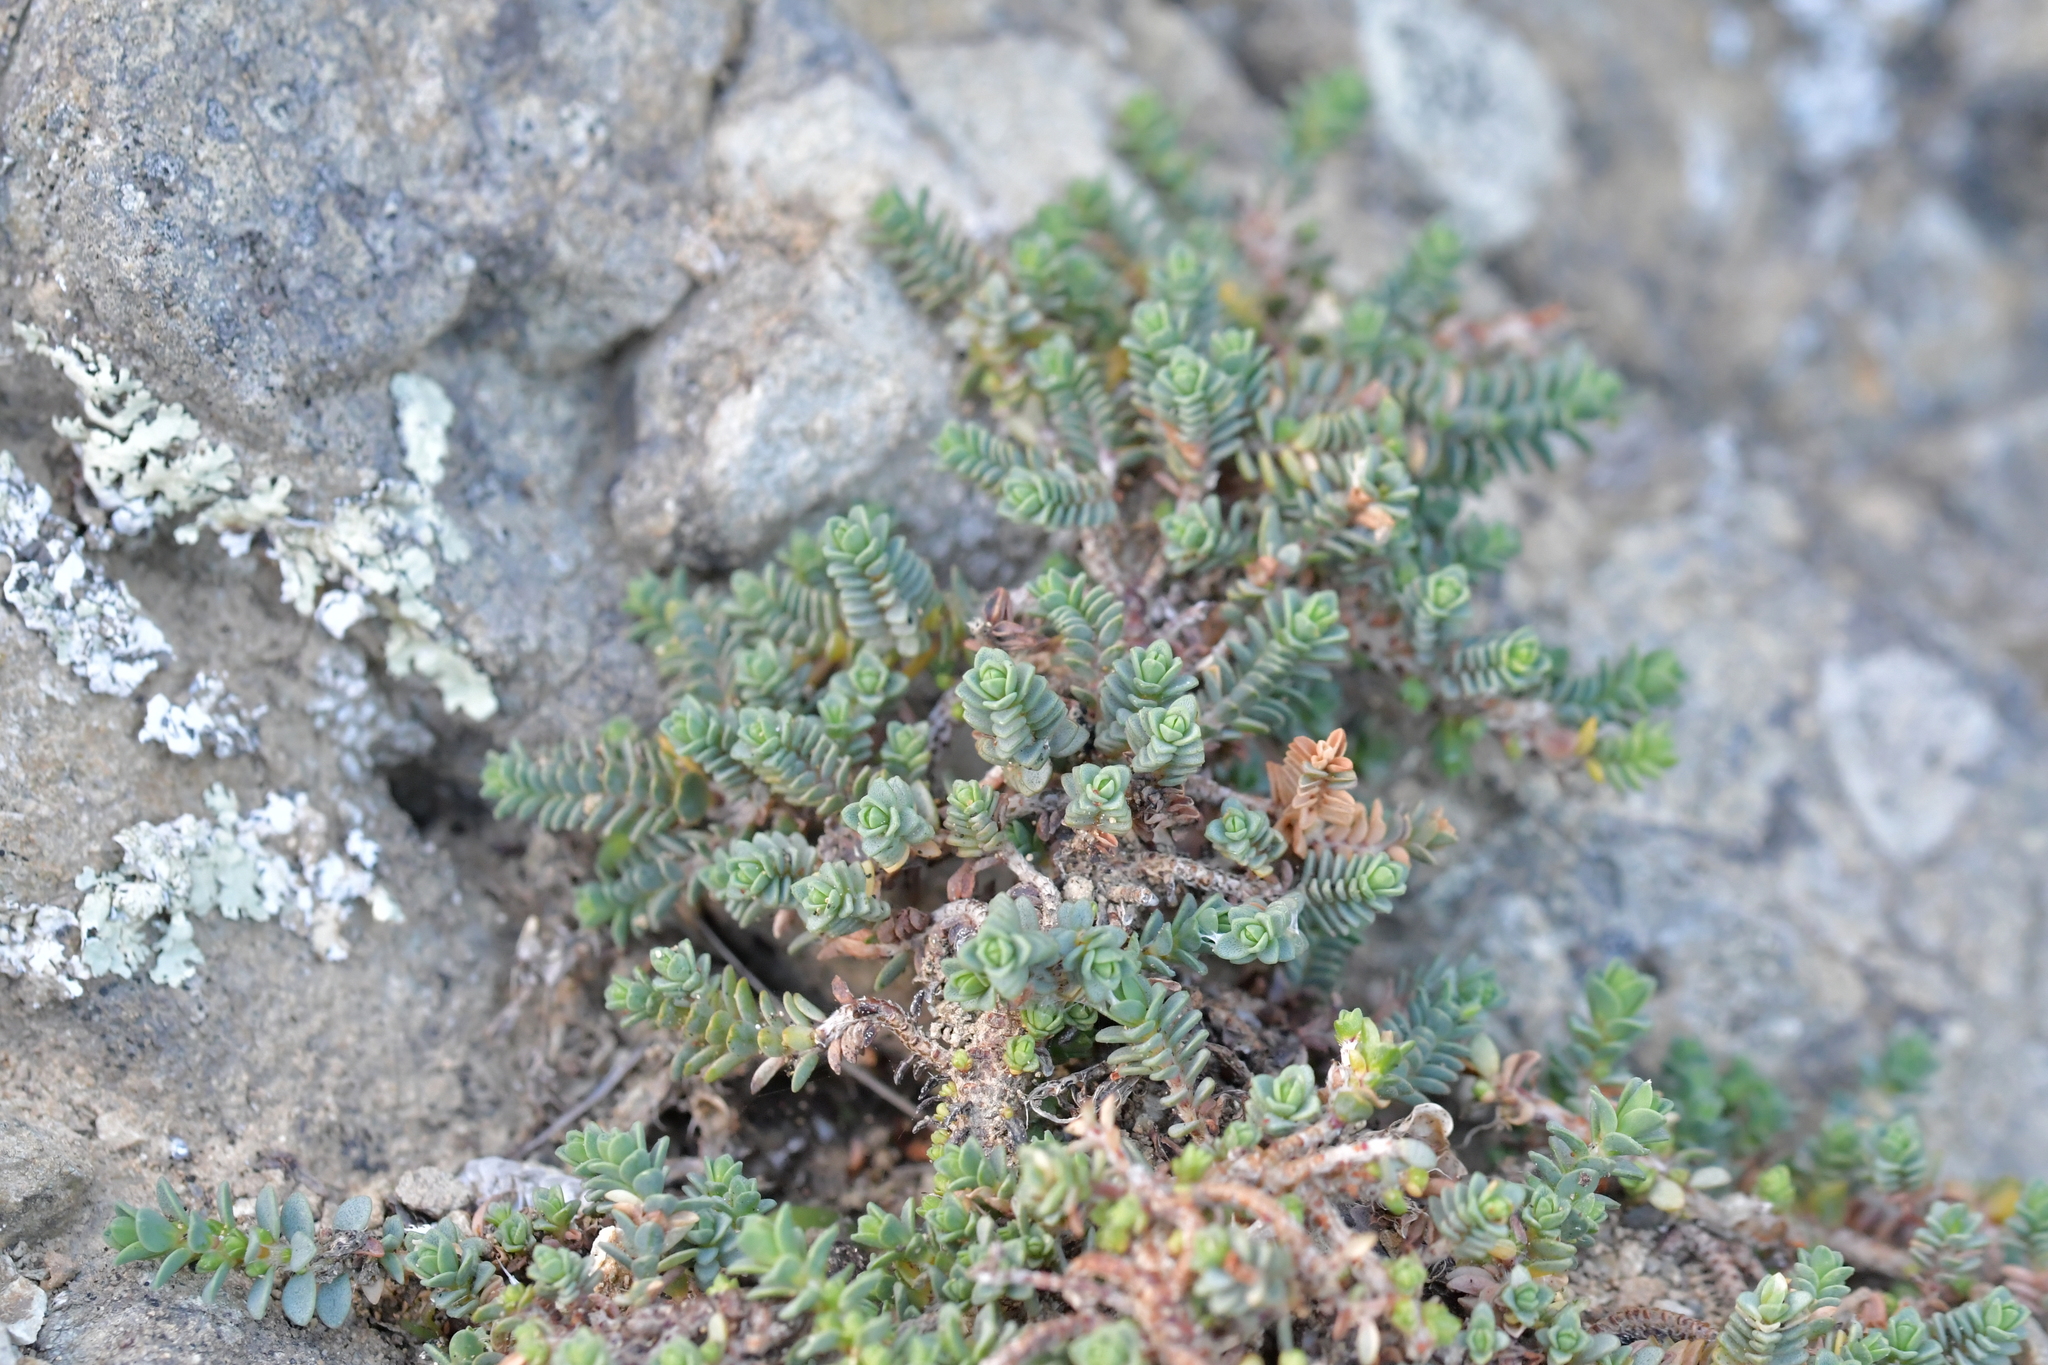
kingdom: Plantae
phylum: Tracheophyta
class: Magnoliopsida
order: Malvales
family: Thymelaeaceae
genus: Pimelea
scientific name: Pimelea carnosa
